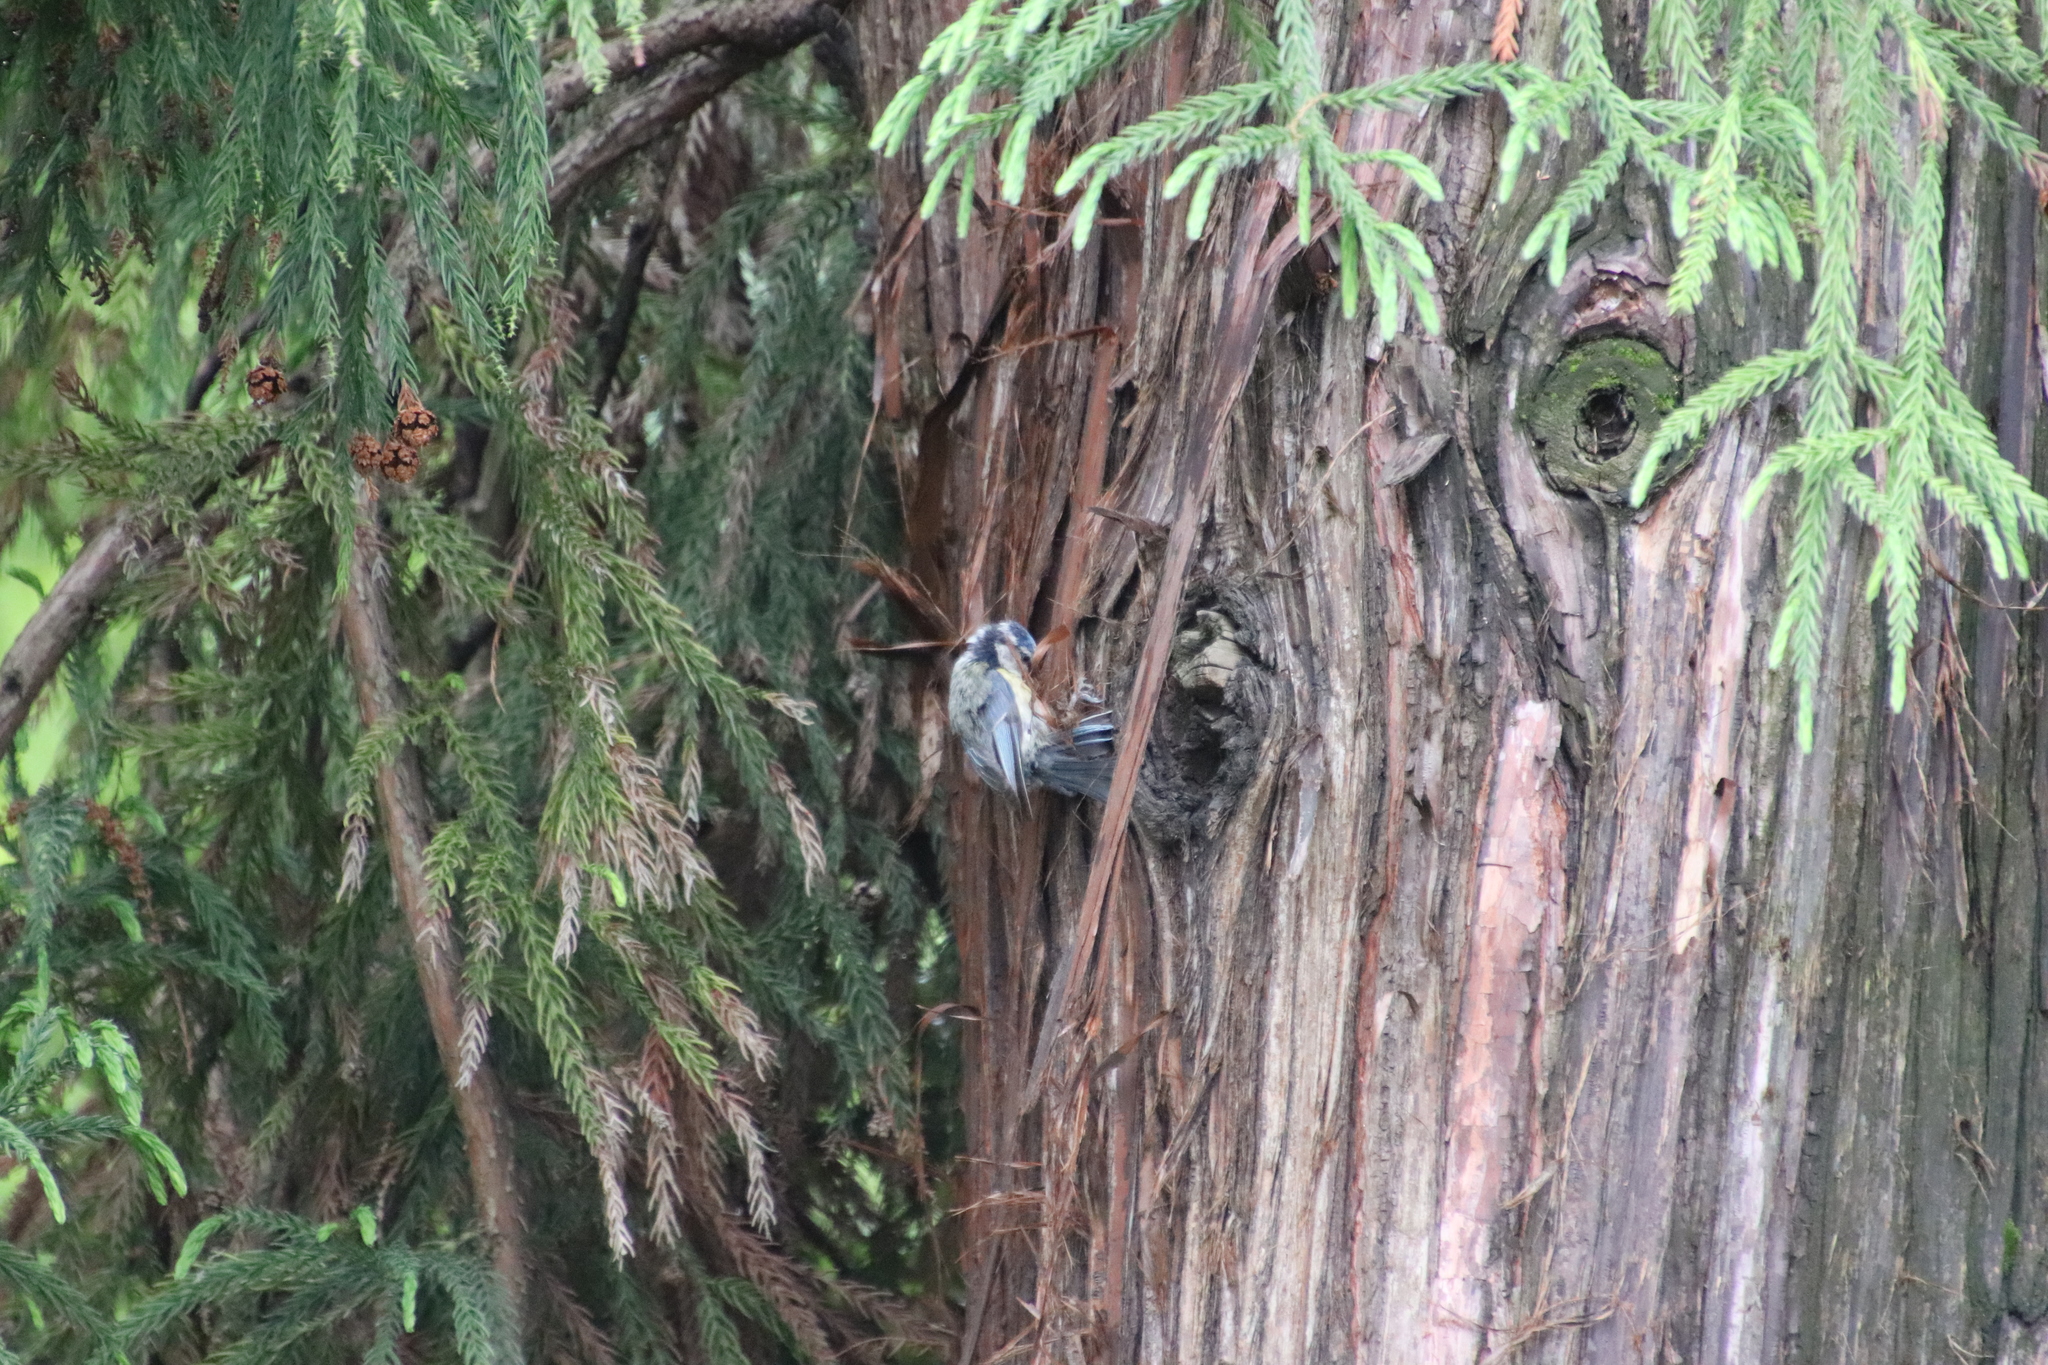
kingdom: Animalia
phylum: Chordata
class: Aves
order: Passeriformes
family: Paridae
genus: Cyanistes
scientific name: Cyanistes caeruleus
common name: Eurasian blue tit
